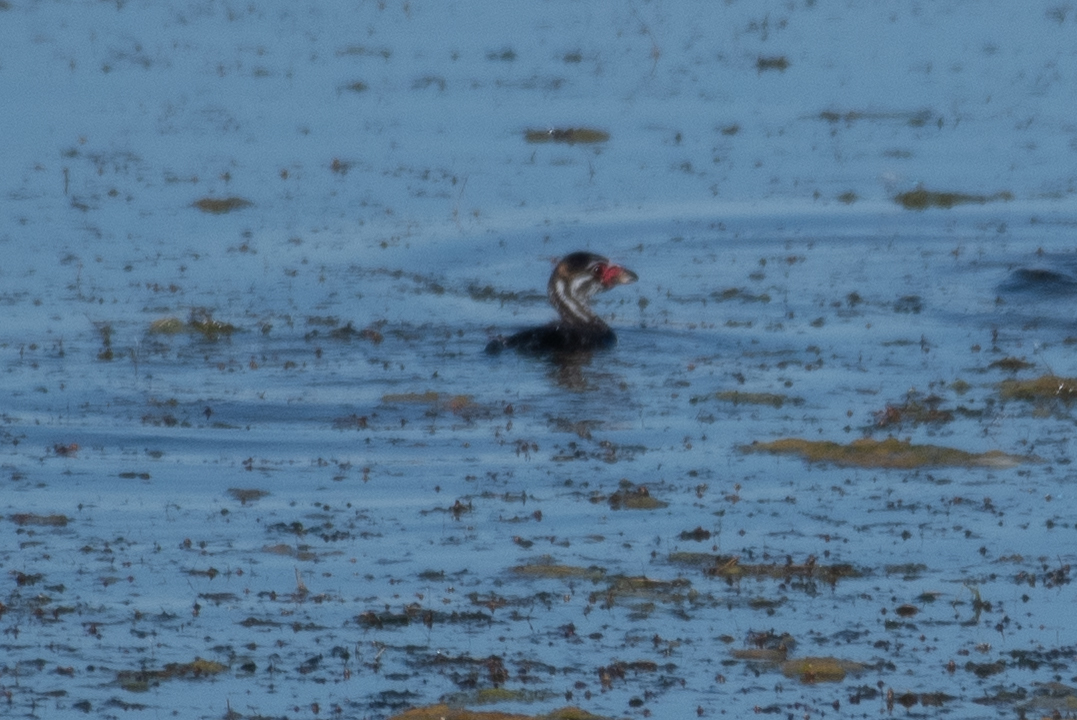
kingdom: Animalia
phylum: Chordata
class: Aves
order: Podicipediformes
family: Podicipedidae
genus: Podilymbus
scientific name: Podilymbus podiceps
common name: Pied-billed grebe
